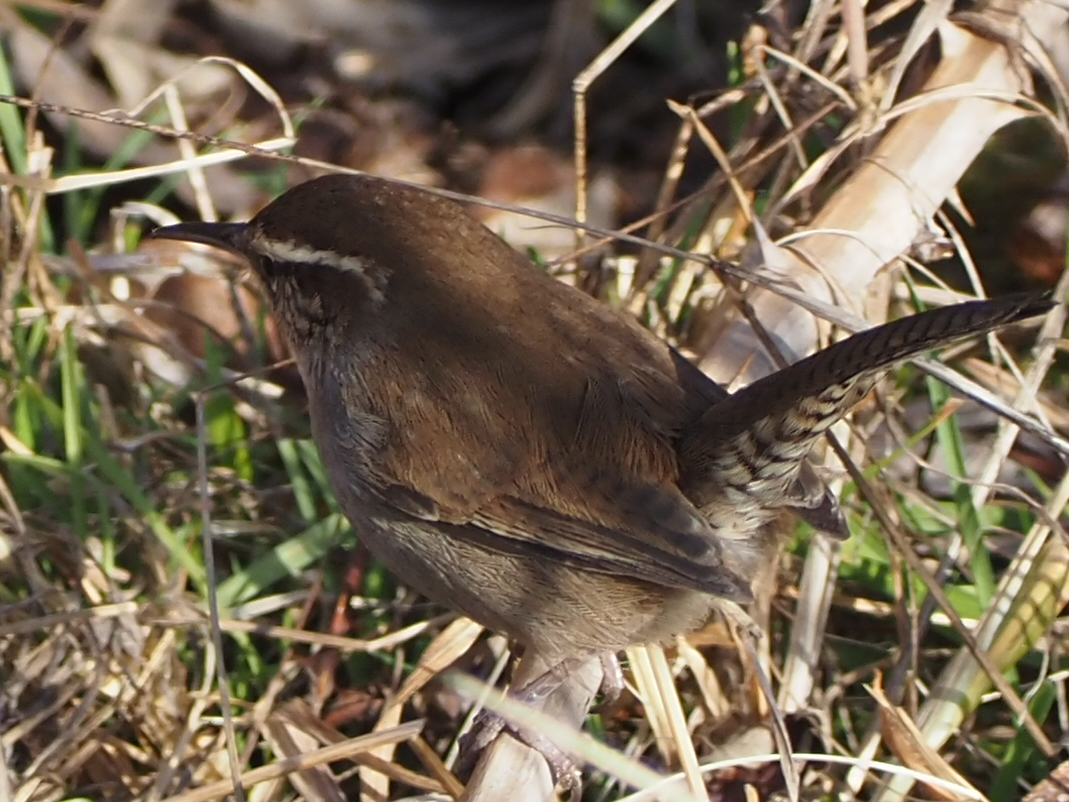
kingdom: Animalia
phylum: Chordata
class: Aves
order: Passeriformes
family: Troglodytidae
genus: Thryomanes
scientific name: Thryomanes bewickii
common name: Bewick's wren
